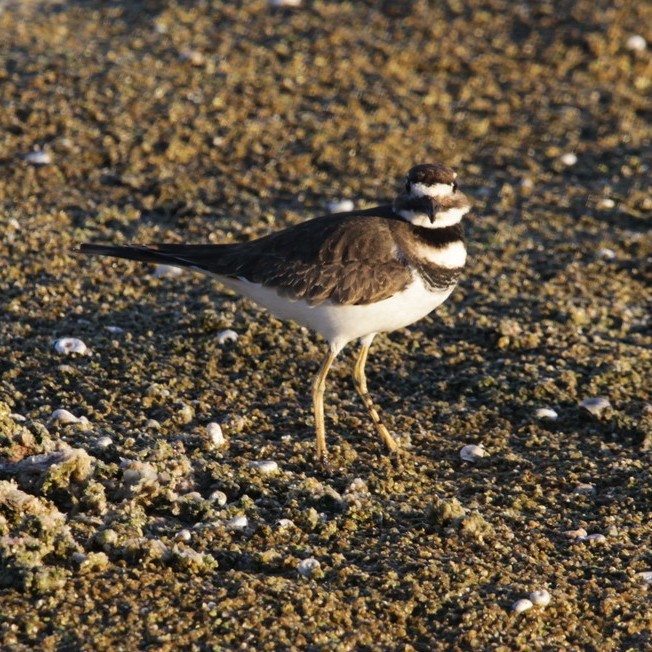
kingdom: Animalia
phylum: Chordata
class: Aves
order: Charadriiformes
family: Charadriidae
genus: Charadrius
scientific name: Charadrius vociferus
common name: Killdeer
